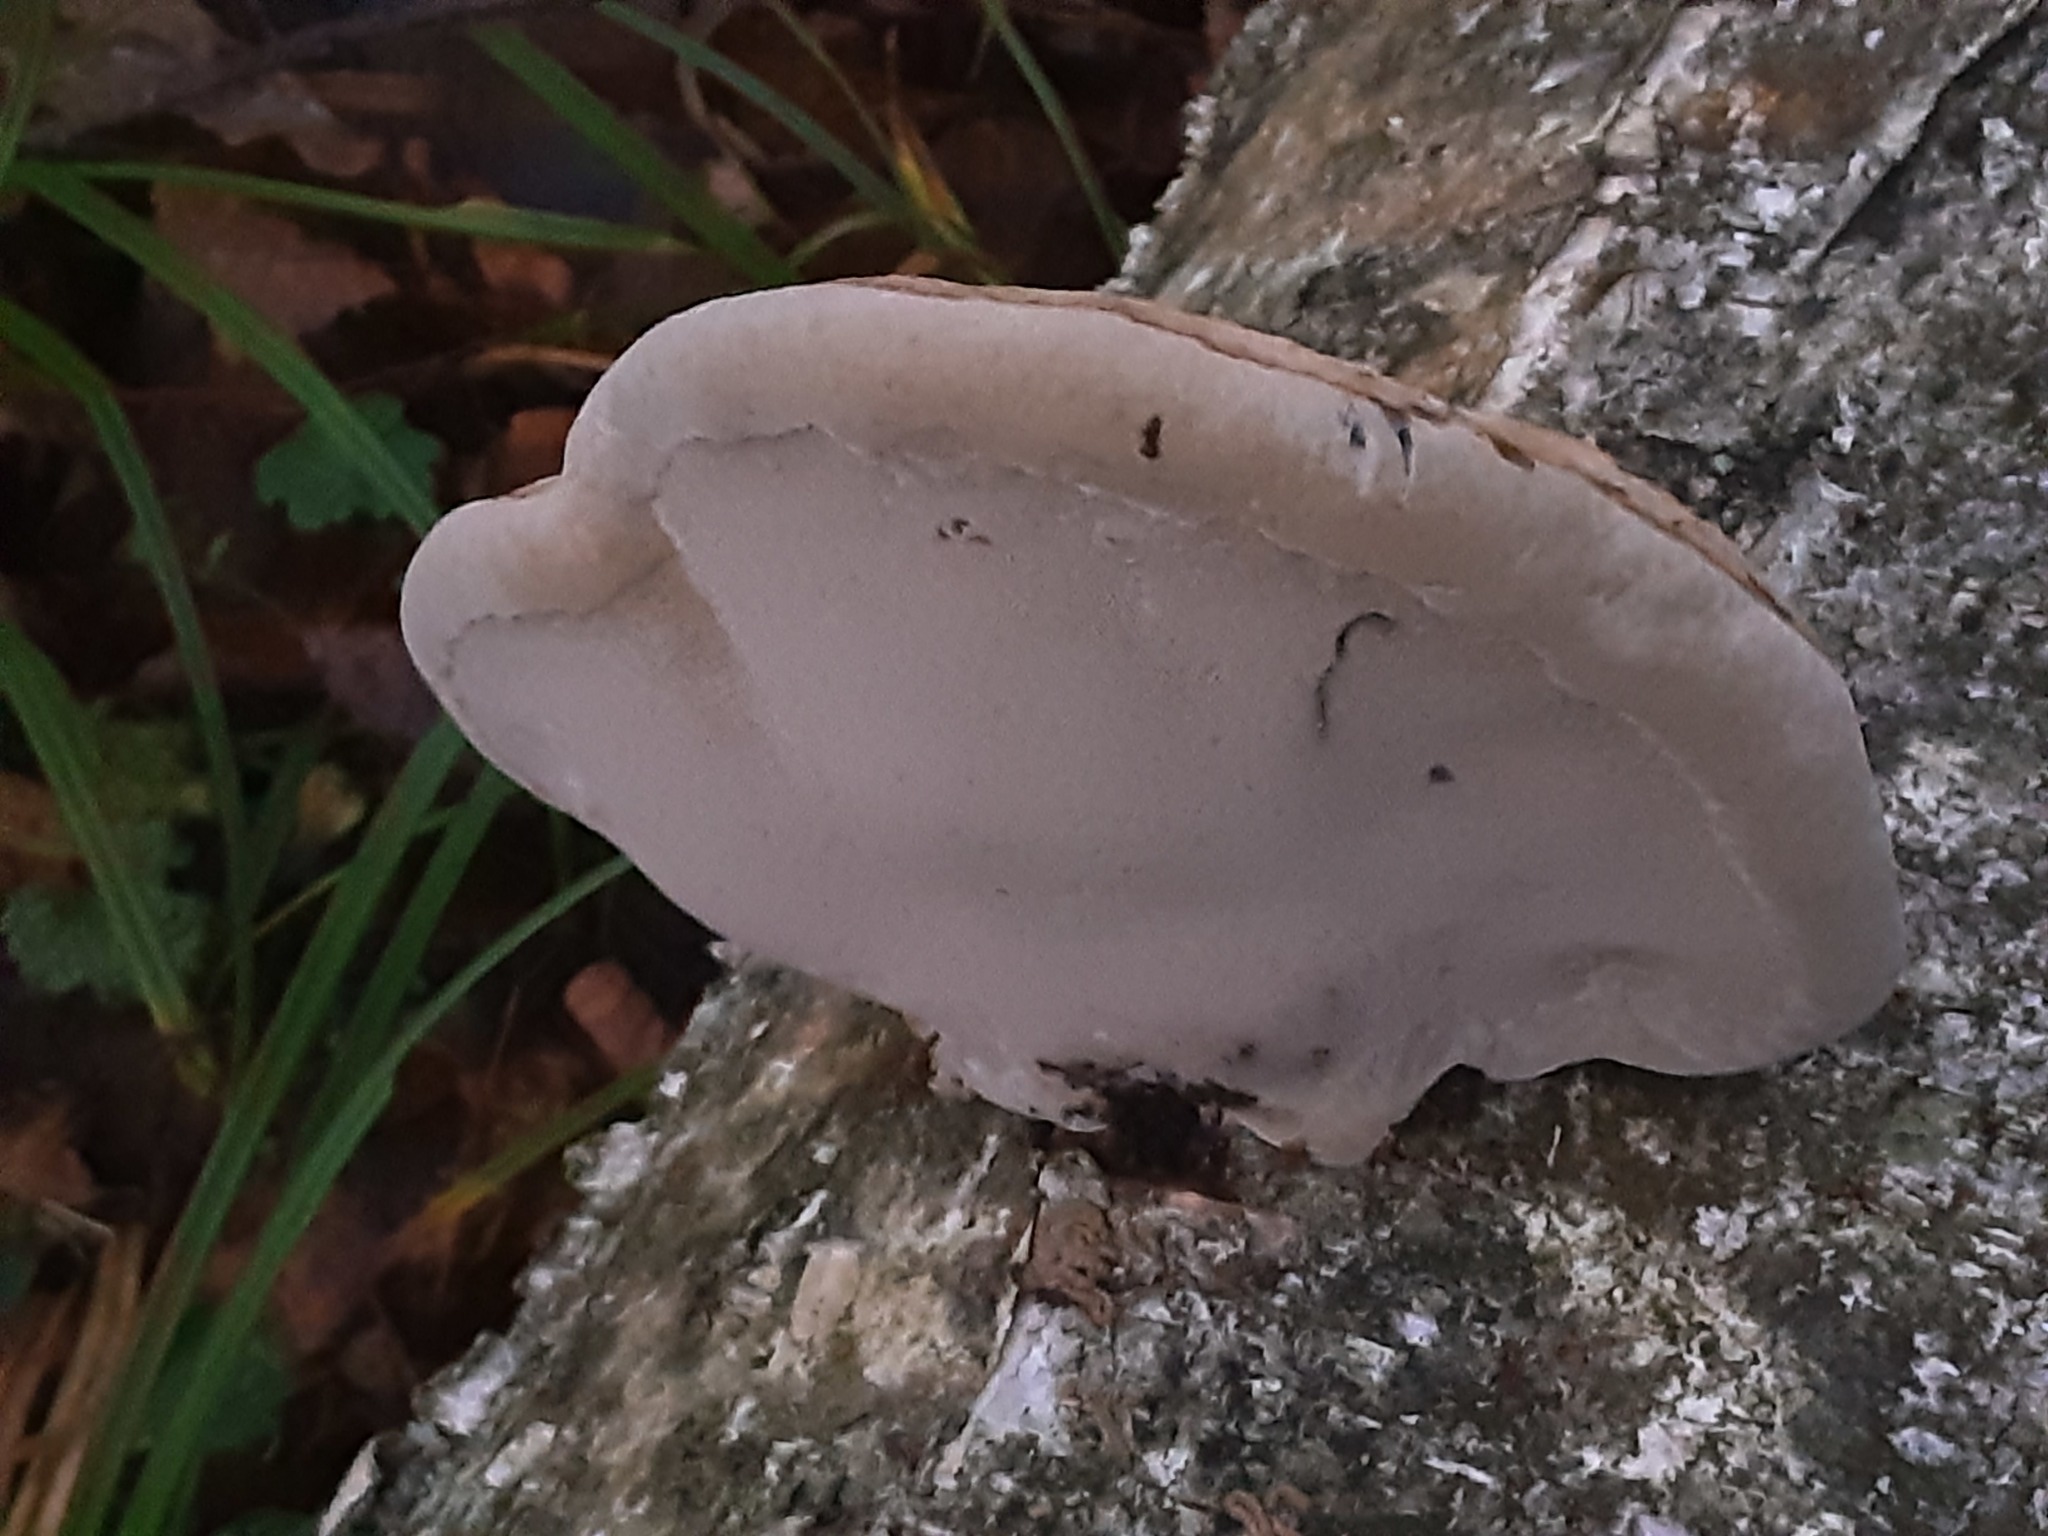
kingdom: Fungi
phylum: Basidiomycota
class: Agaricomycetes
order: Polyporales
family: Polyporaceae
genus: Fomes
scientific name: Fomes fomentarius
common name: Hoof fungus
